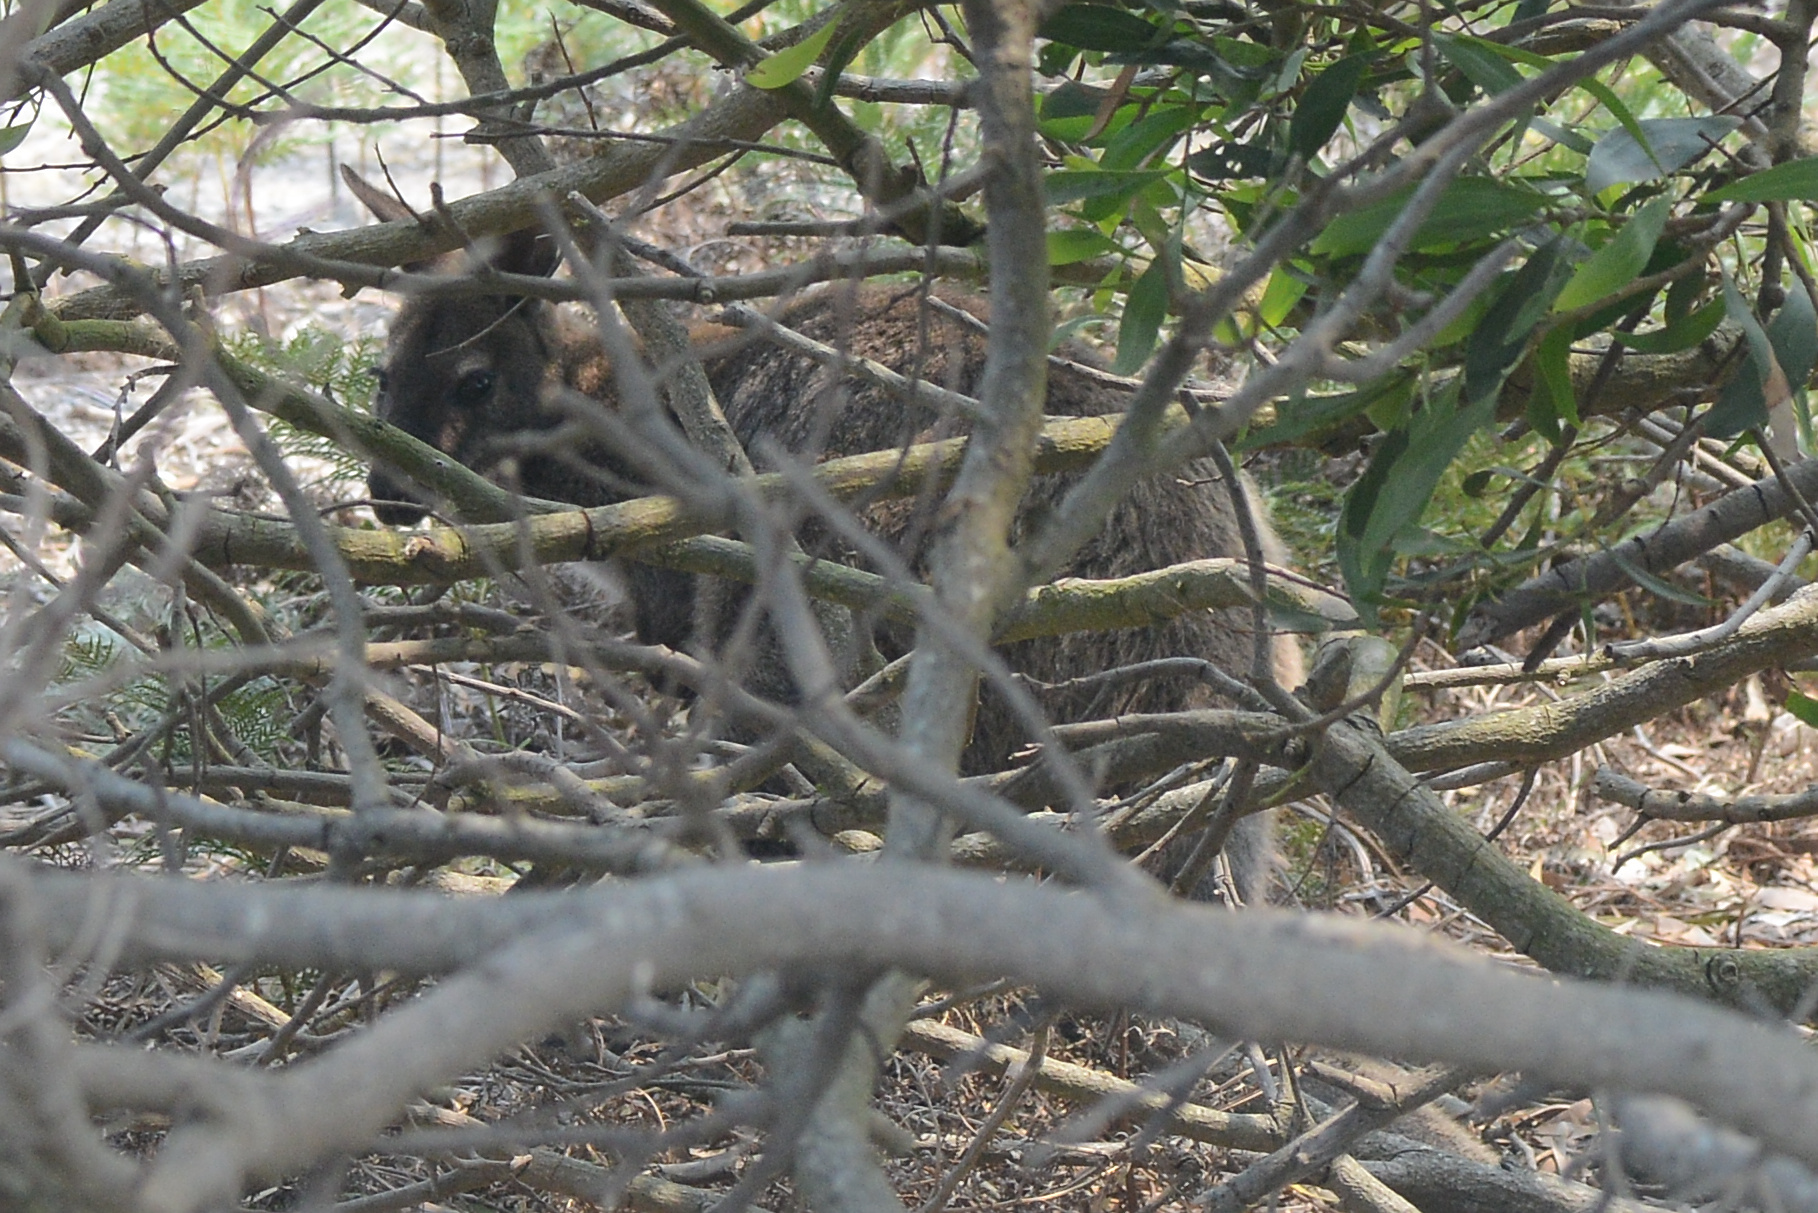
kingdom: Animalia
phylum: Chordata
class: Mammalia
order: Diprotodontia
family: Macropodidae
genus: Notamacropus
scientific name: Notamacropus rufogriseus
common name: Red-necked wallaby
